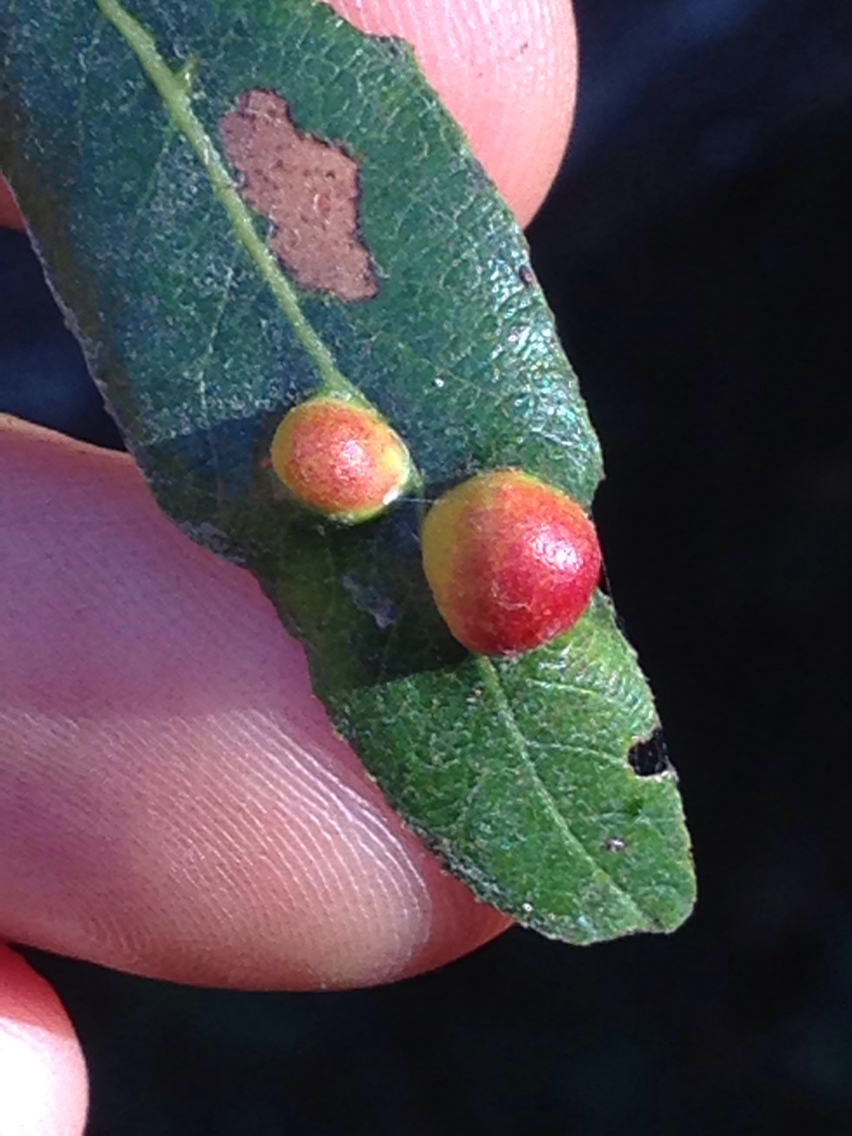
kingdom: Animalia
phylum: Arthropoda
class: Insecta
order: Hymenoptera
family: Tenthredinidae
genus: Euura
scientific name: Euura
